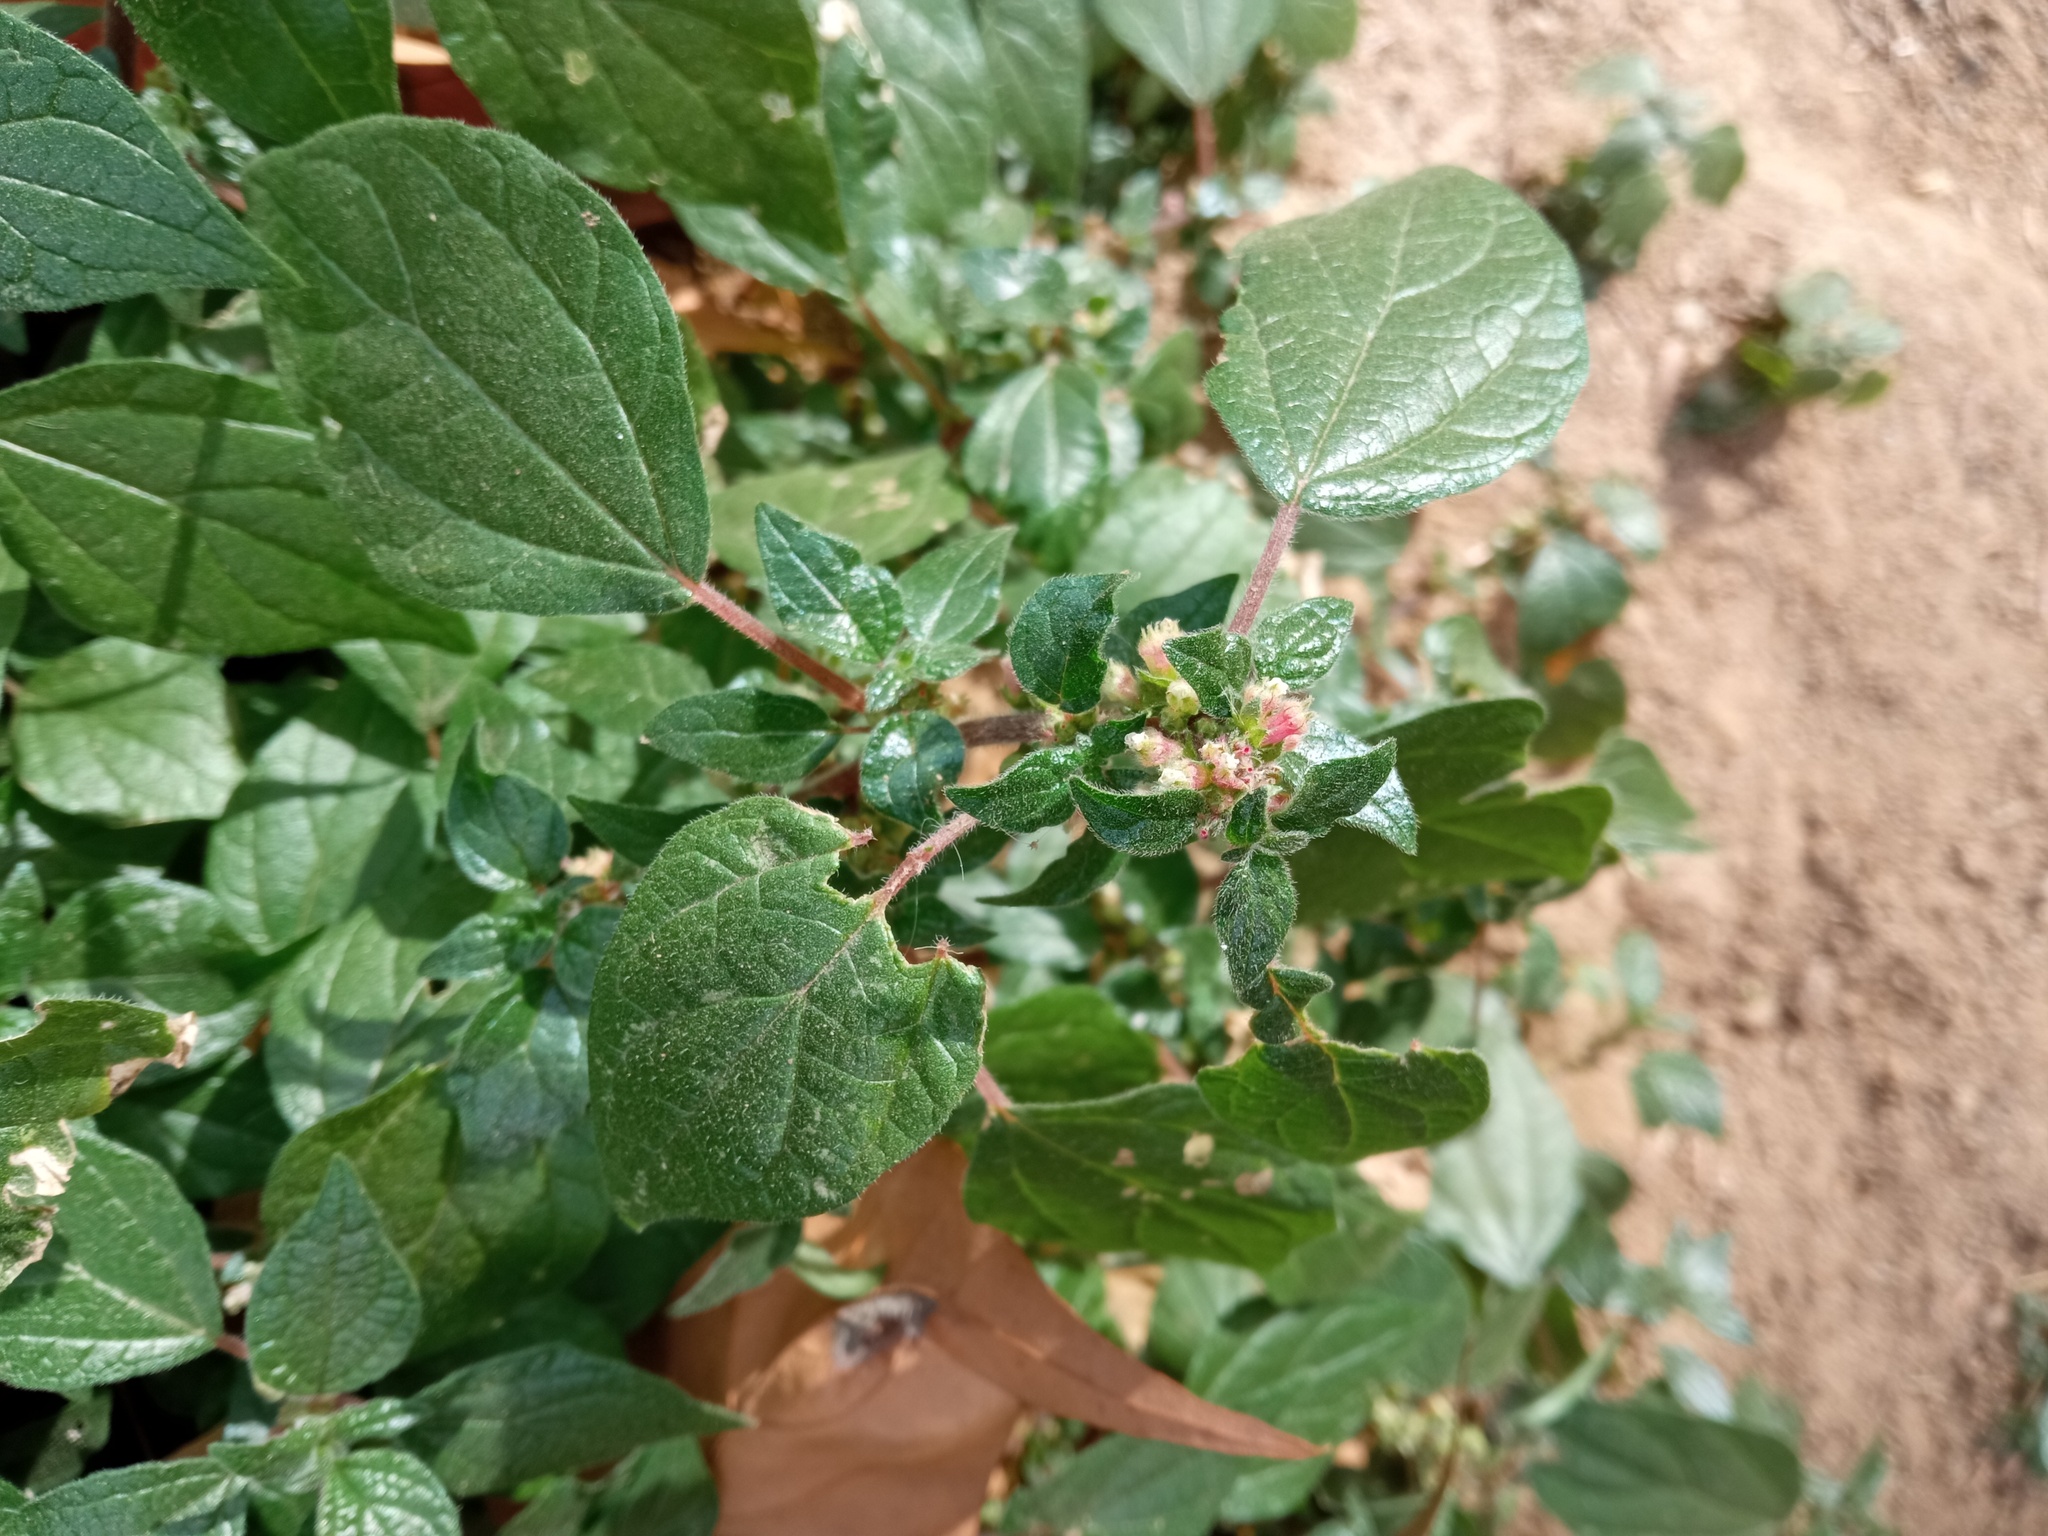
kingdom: Plantae
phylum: Tracheophyta
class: Magnoliopsida
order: Rosales
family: Urticaceae
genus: Parietaria
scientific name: Parietaria judaica
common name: Pellitory-of-the-wall
